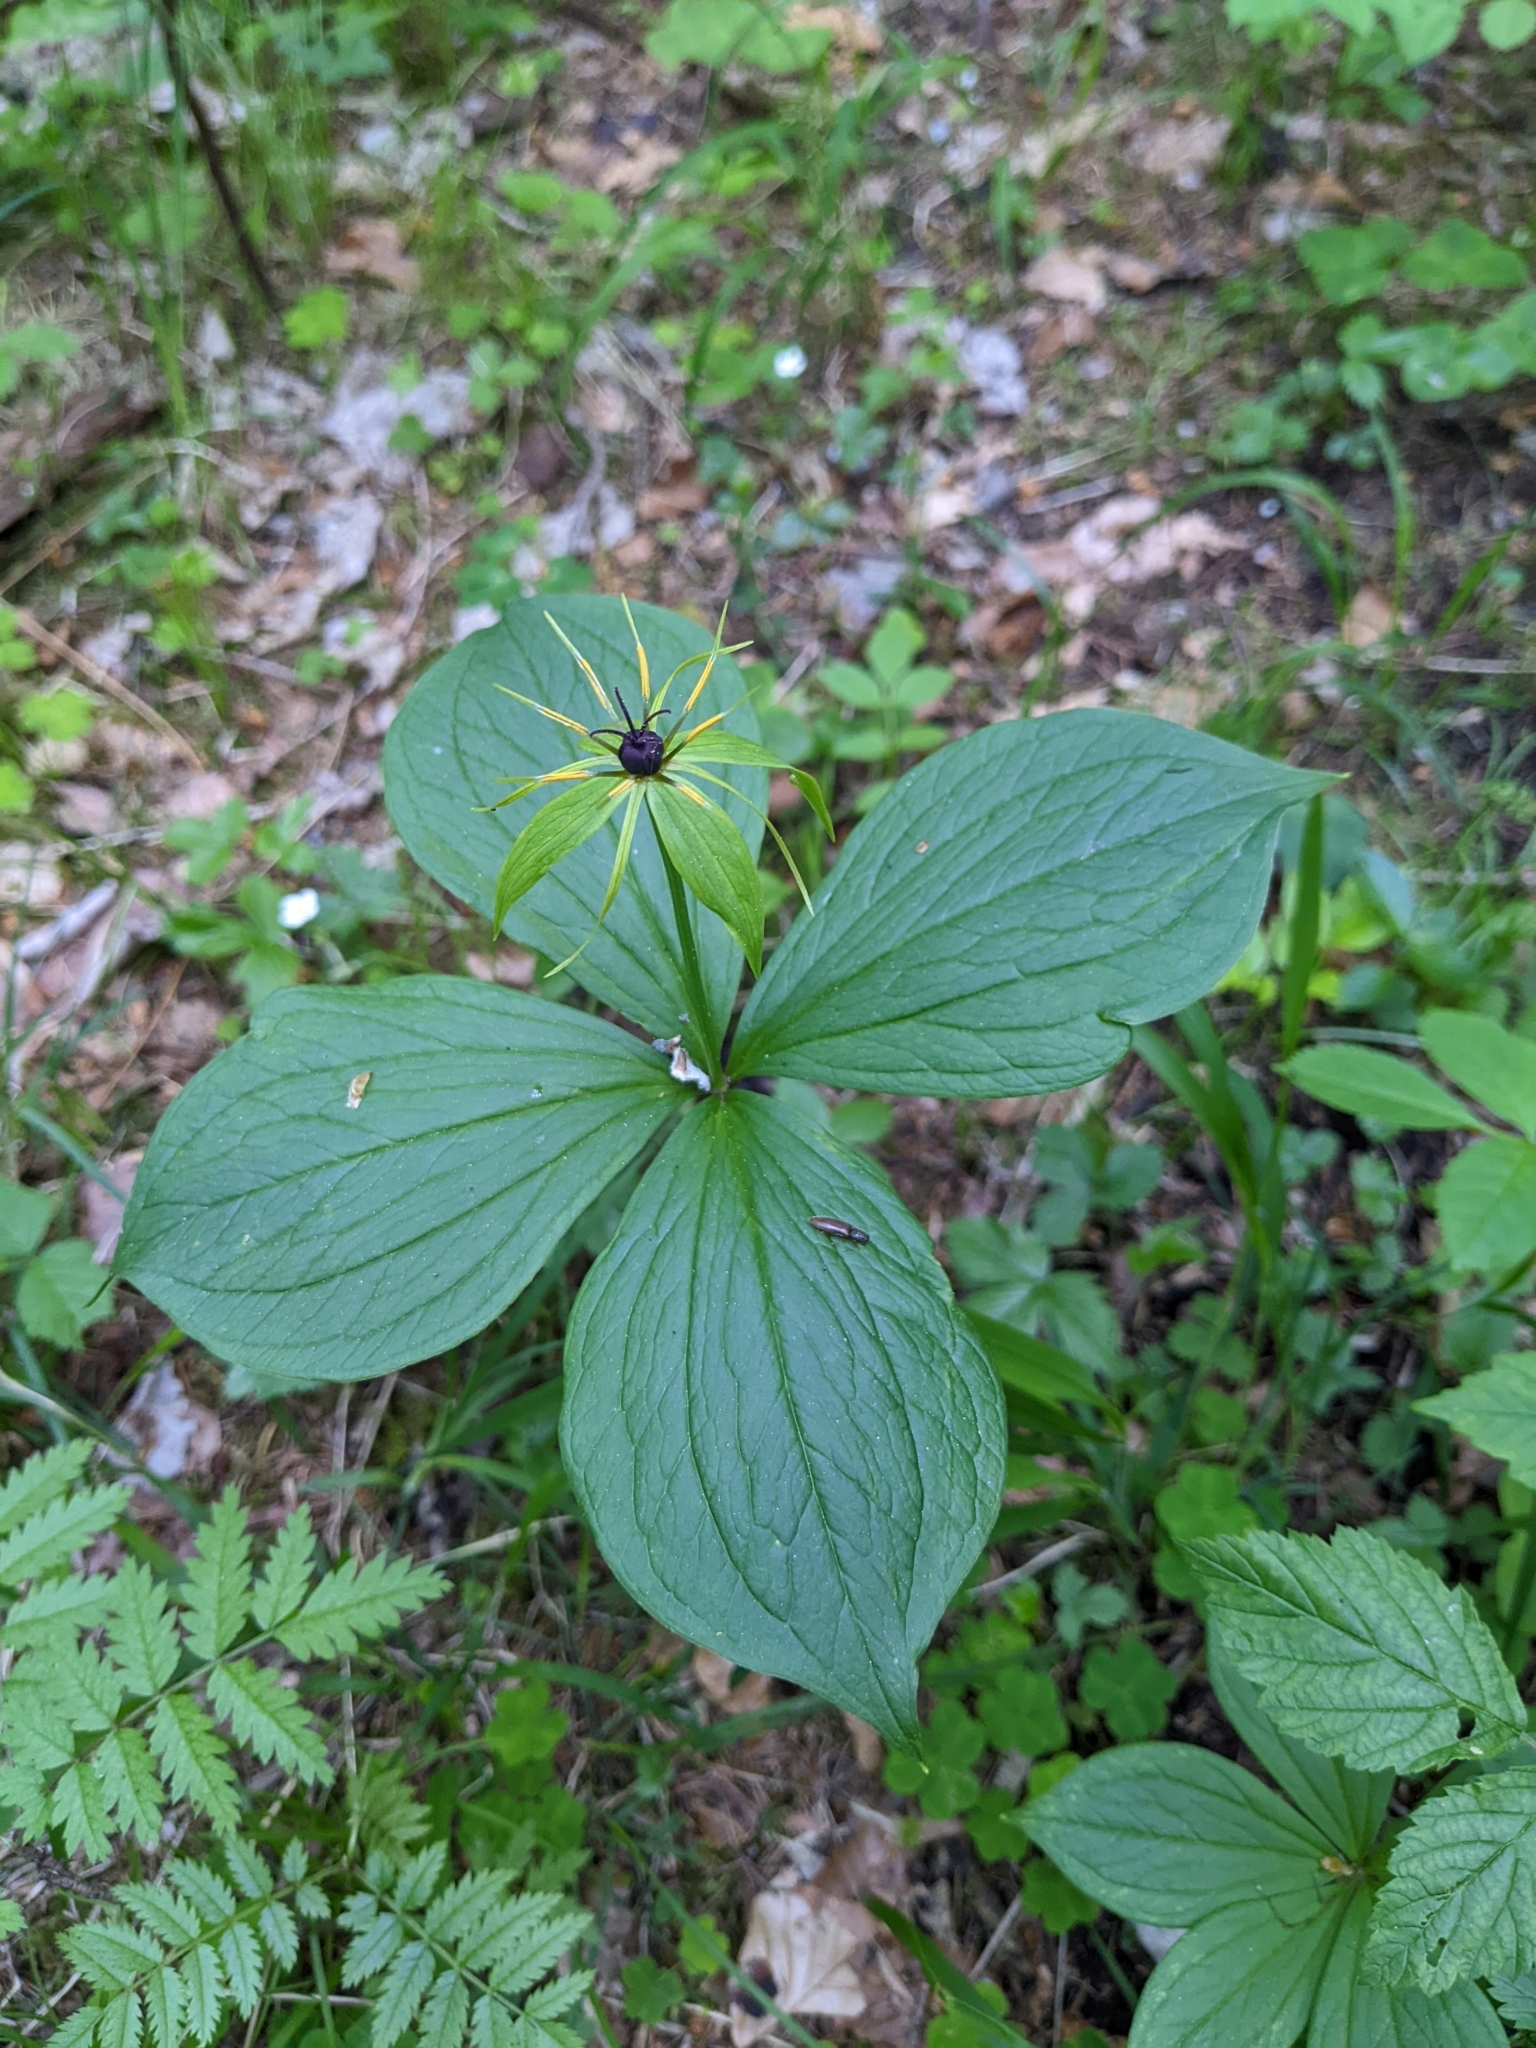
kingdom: Plantae
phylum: Tracheophyta
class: Liliopsida
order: Liliales
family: Melanthiaceae
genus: Paris
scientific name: Paris quadrifolia
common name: Herb-paris
